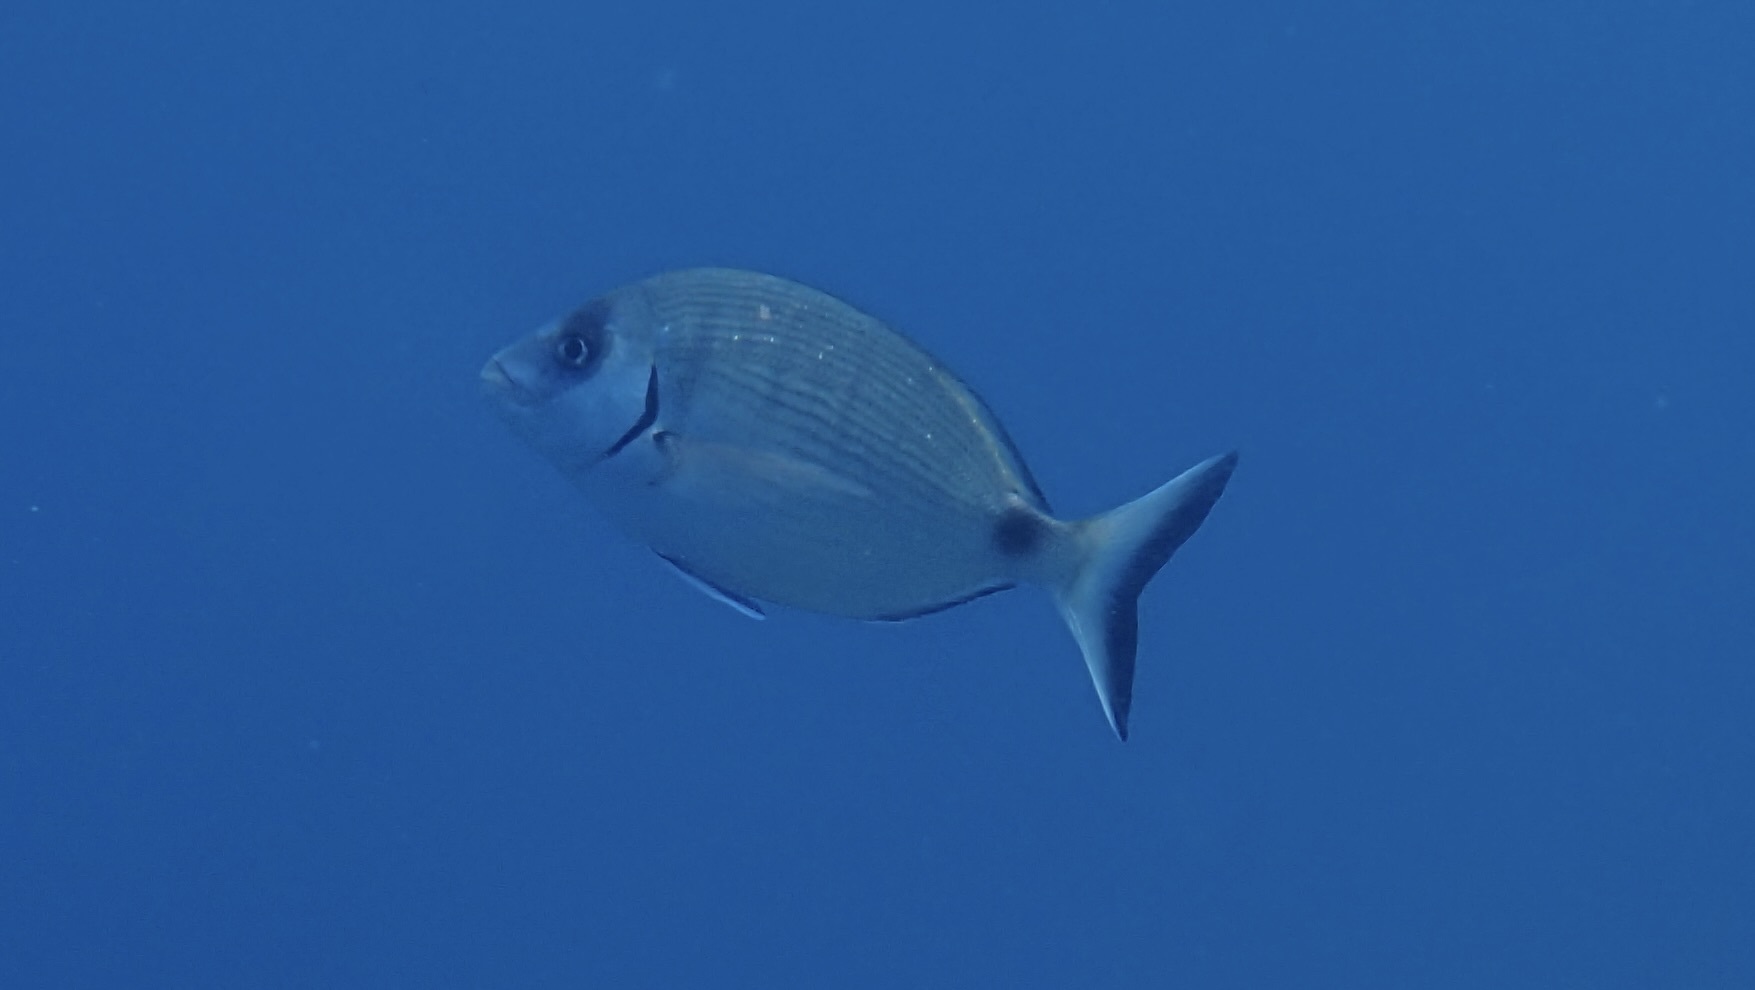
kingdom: Animalia
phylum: Chordata
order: Perciformes
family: Sparidae
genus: Diplodus
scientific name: Diplodus sargus
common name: White seabream
